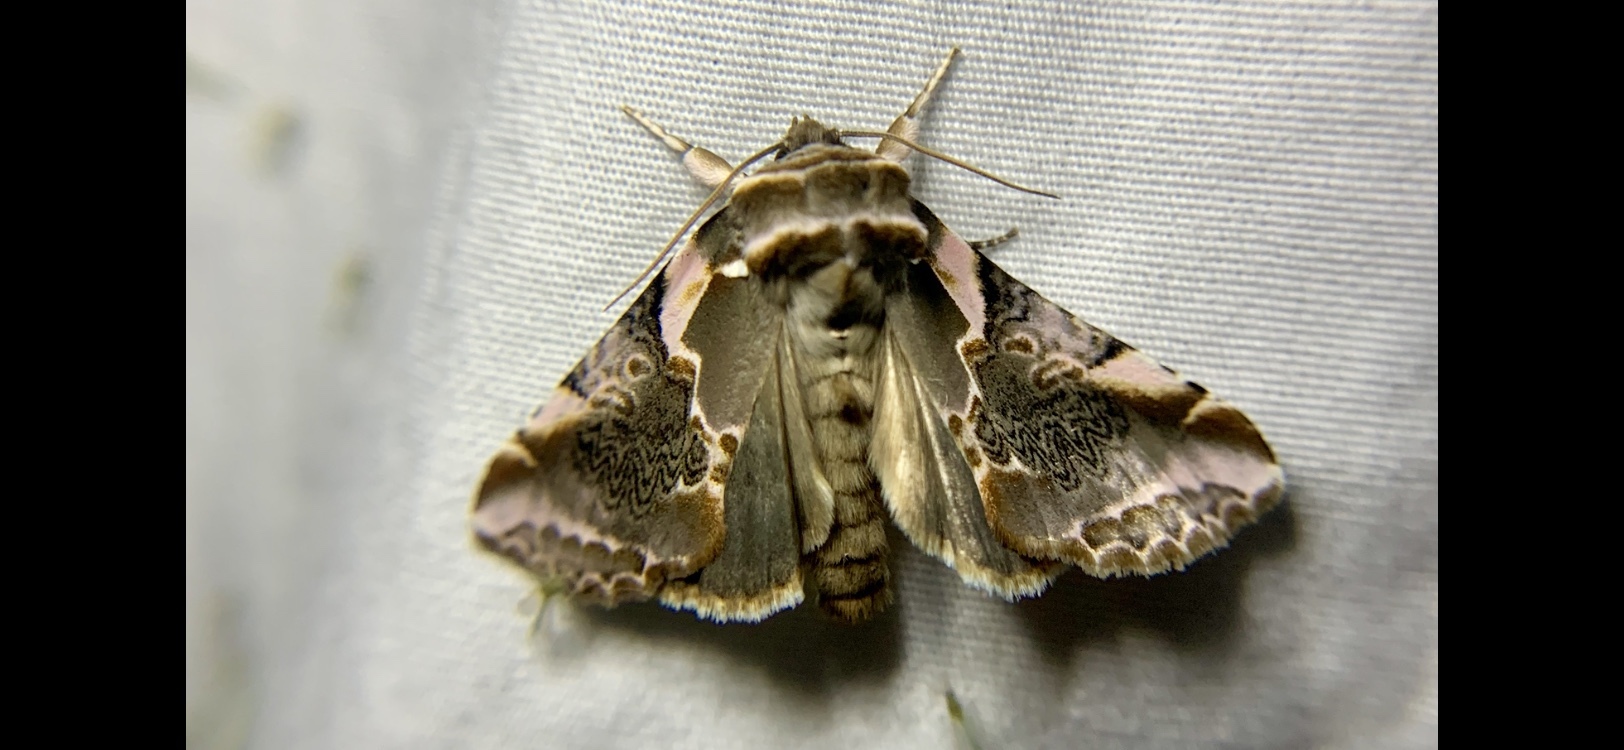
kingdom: Animalia
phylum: Arthropoda
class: Insecta
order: Lepidoptera
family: Drepanidae
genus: Habrosyne
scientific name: Habrosyne gloriosa
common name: Glorious habrosyne moth
